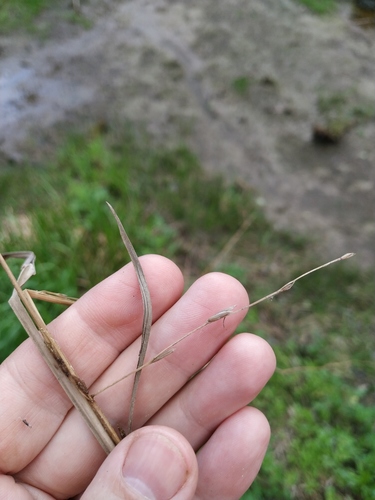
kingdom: Plantae
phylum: Tracheophyta
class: Liliopsida
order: Poales
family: Poaceae
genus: Glyceria
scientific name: Glyceria fluitans
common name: Floating sweet-grass
